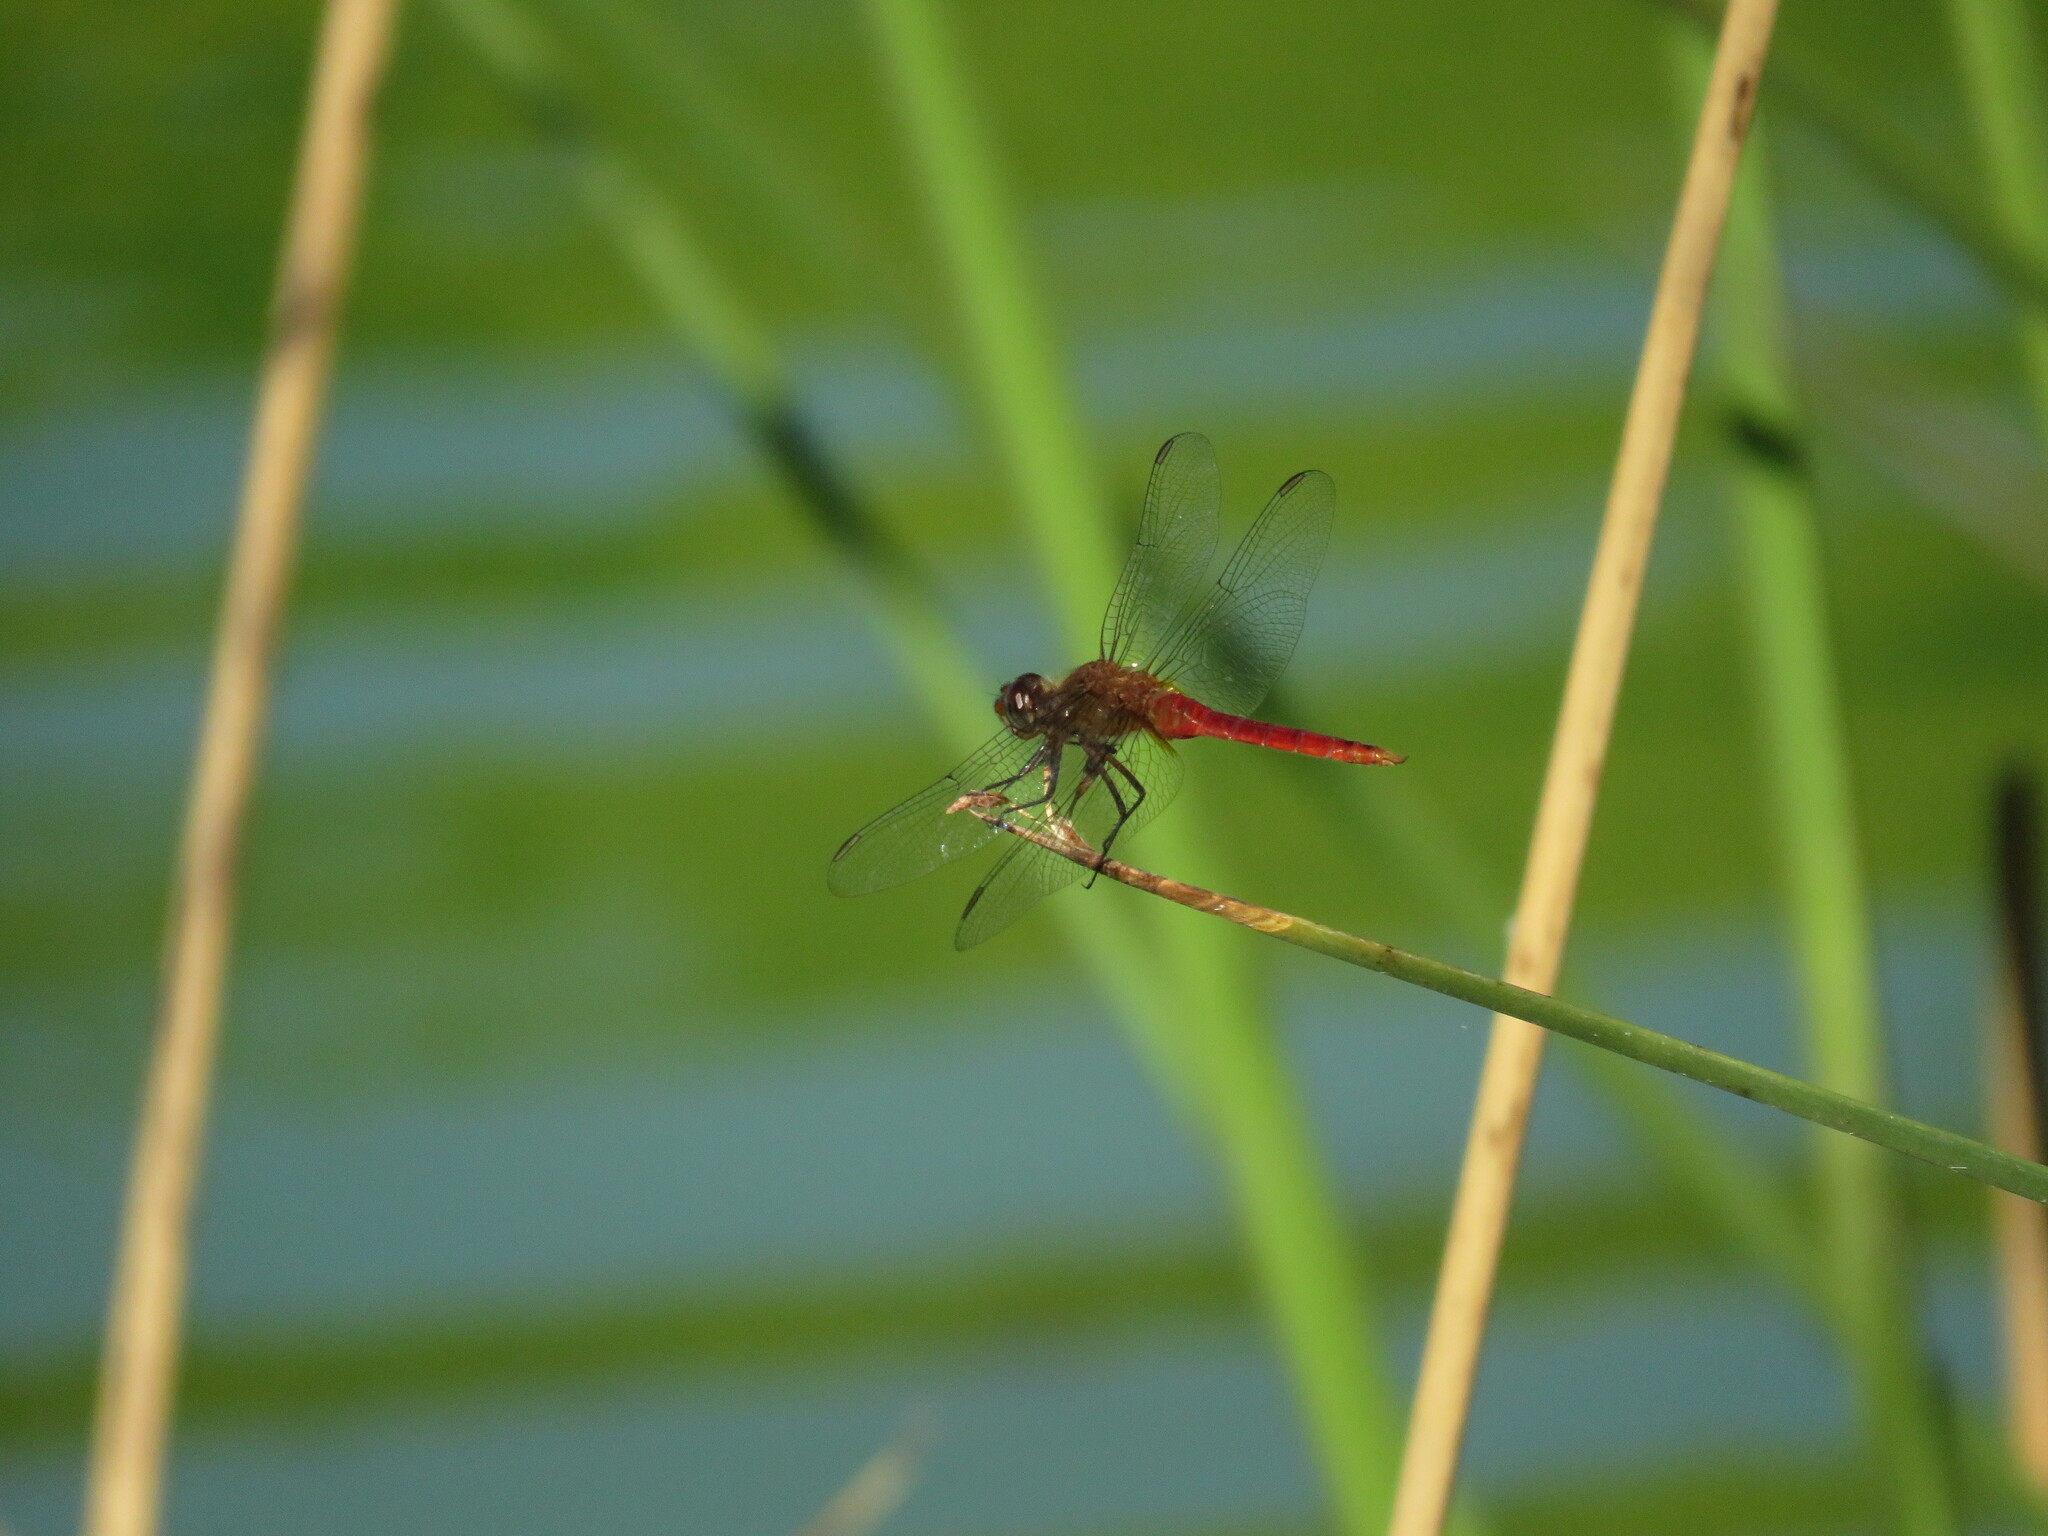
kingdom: Animalia
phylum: Arthropoda
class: Insecta
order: Odonata
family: Libellulidae
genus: Brachymesia
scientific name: Brachymesia furcata
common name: Red-taled pennant
